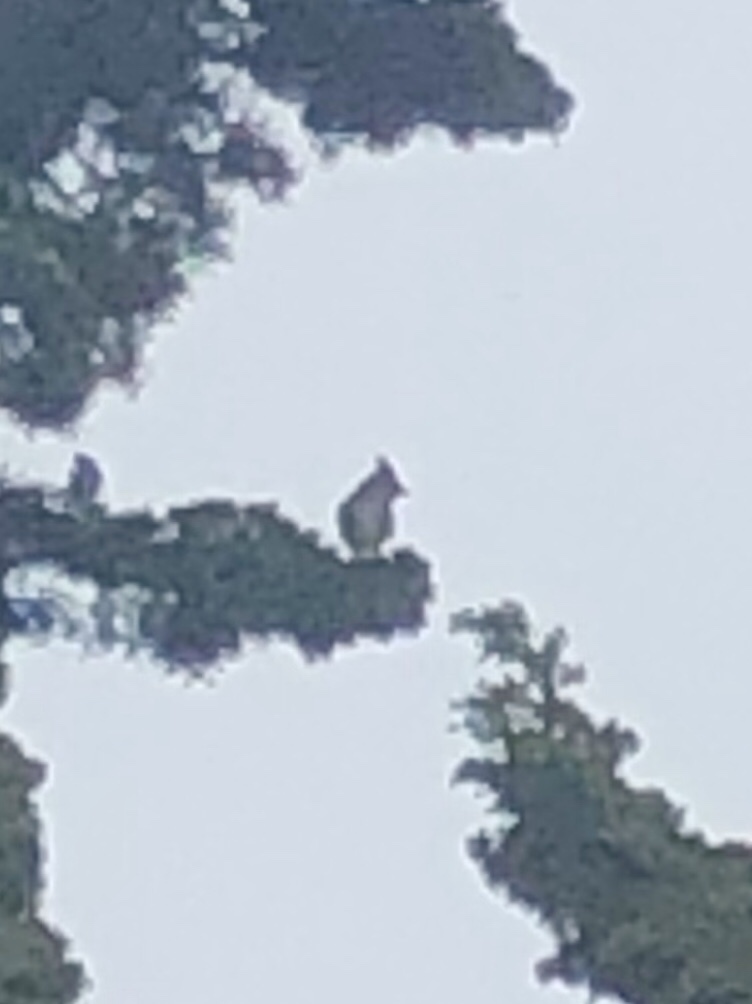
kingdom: Animalia
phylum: Chordata
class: Aves
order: Passeriformes
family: Bombycillidae
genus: Bombycilla
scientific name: Bombycilla cedrorum
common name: Cedar waxwing
